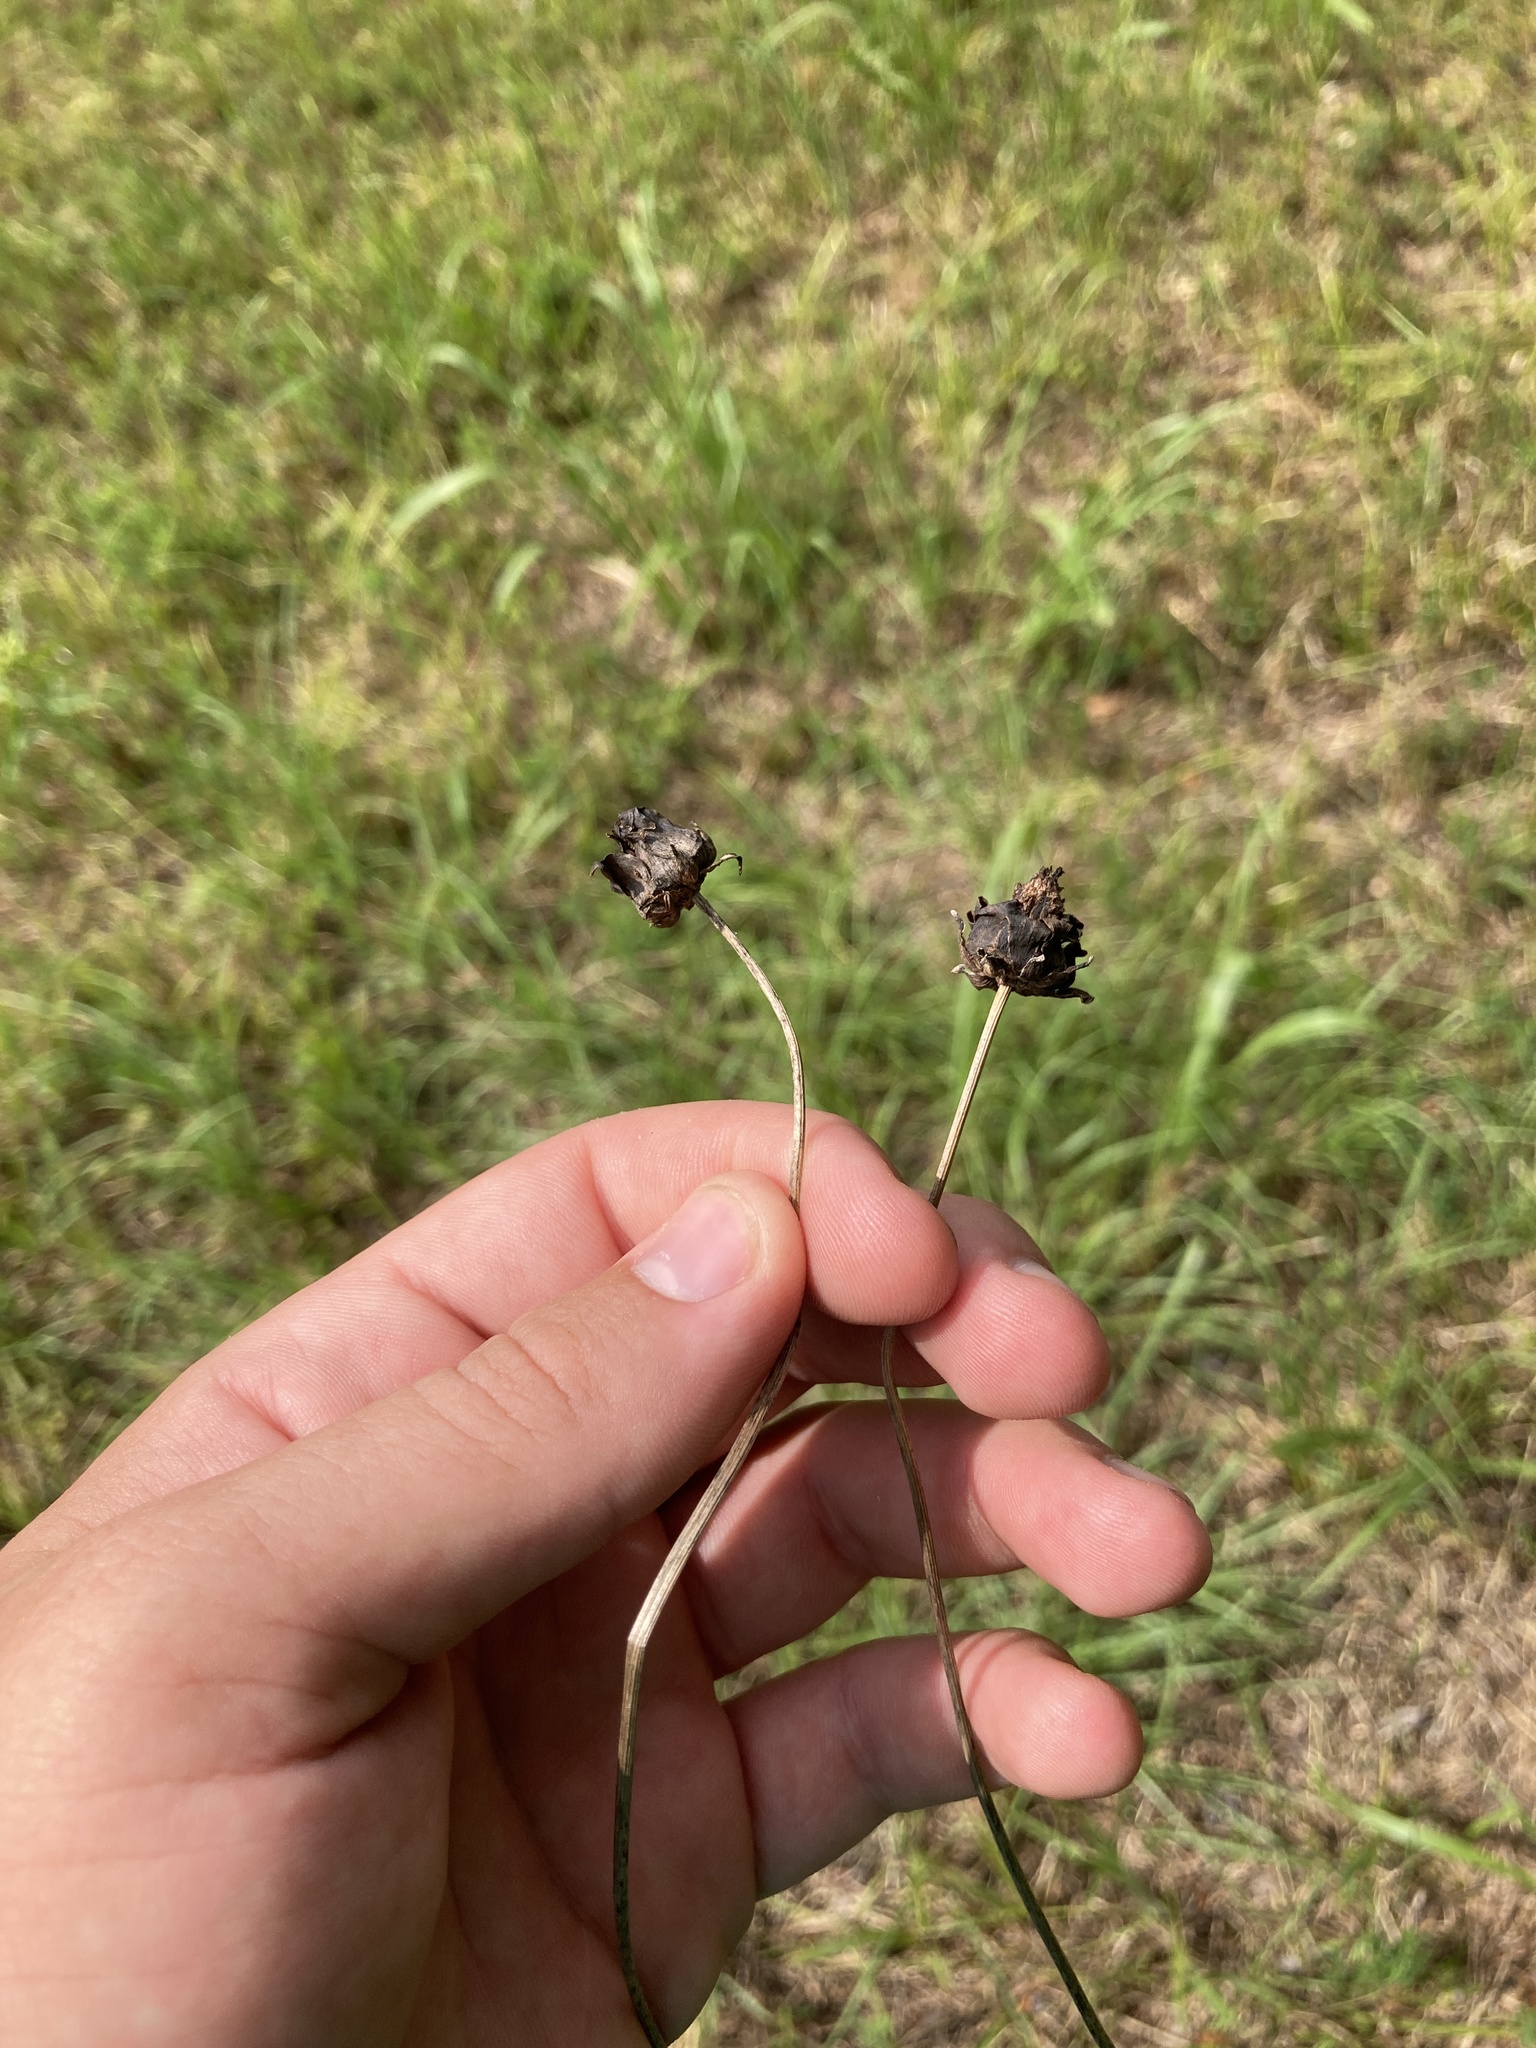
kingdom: Plantae
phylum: Tracheophyta
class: Magnoliopsida
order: Asterales
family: Asteraceae
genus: Coreopsis
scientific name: Coreopsis lanceolata
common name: Garden coreopsis
